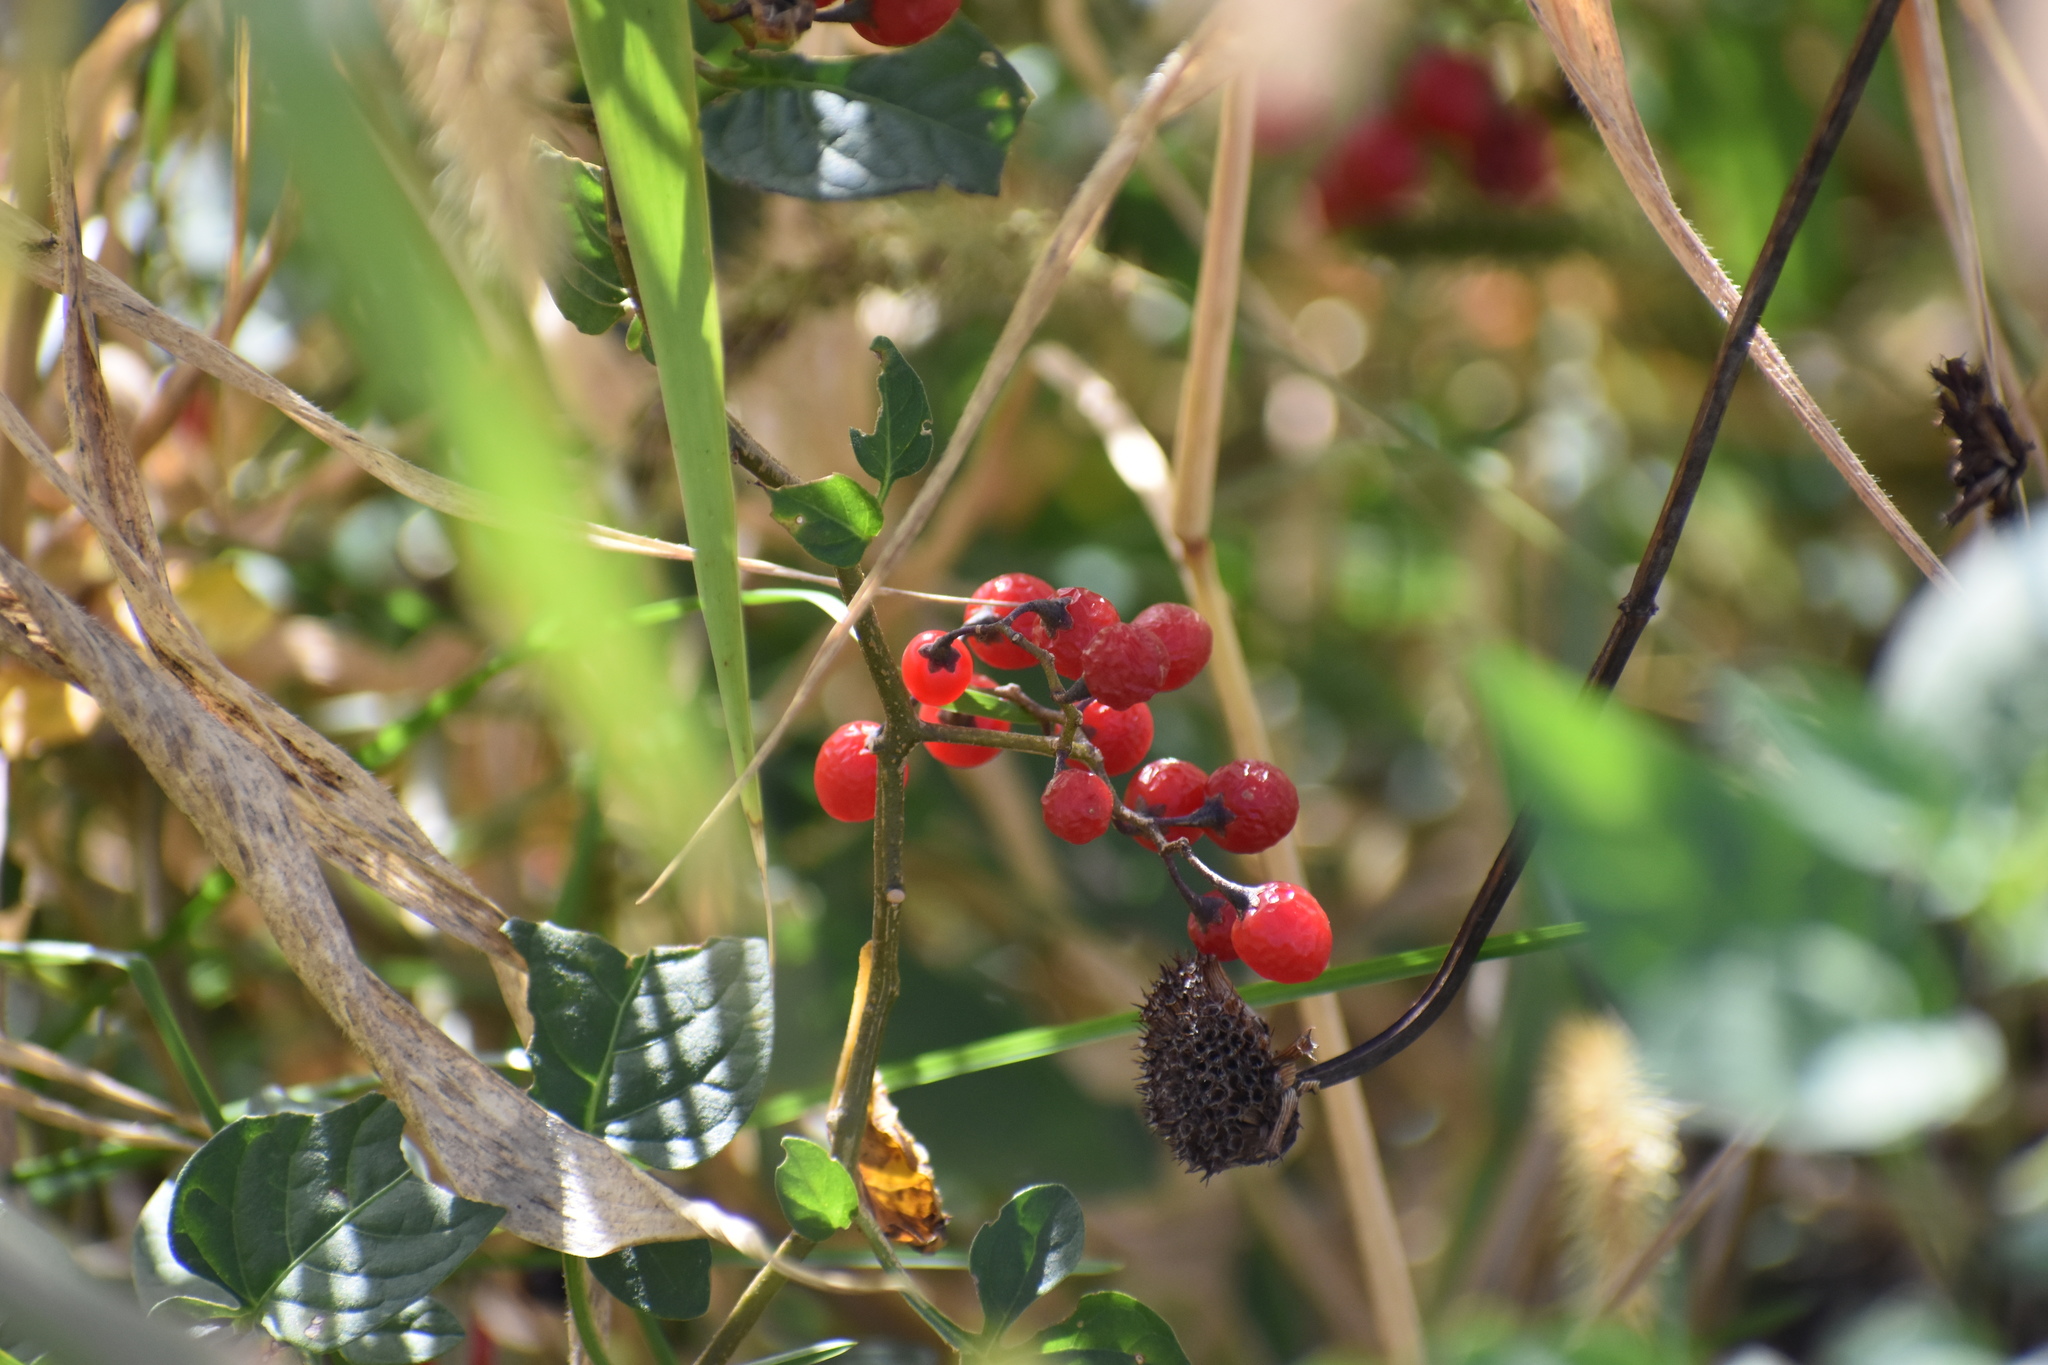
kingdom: Plantae
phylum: Tracheophyta
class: Magnoliopsida
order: Solanales
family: Solanaceae
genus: Solanum
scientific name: Solanum dulcamara
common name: Climbing nightshade
